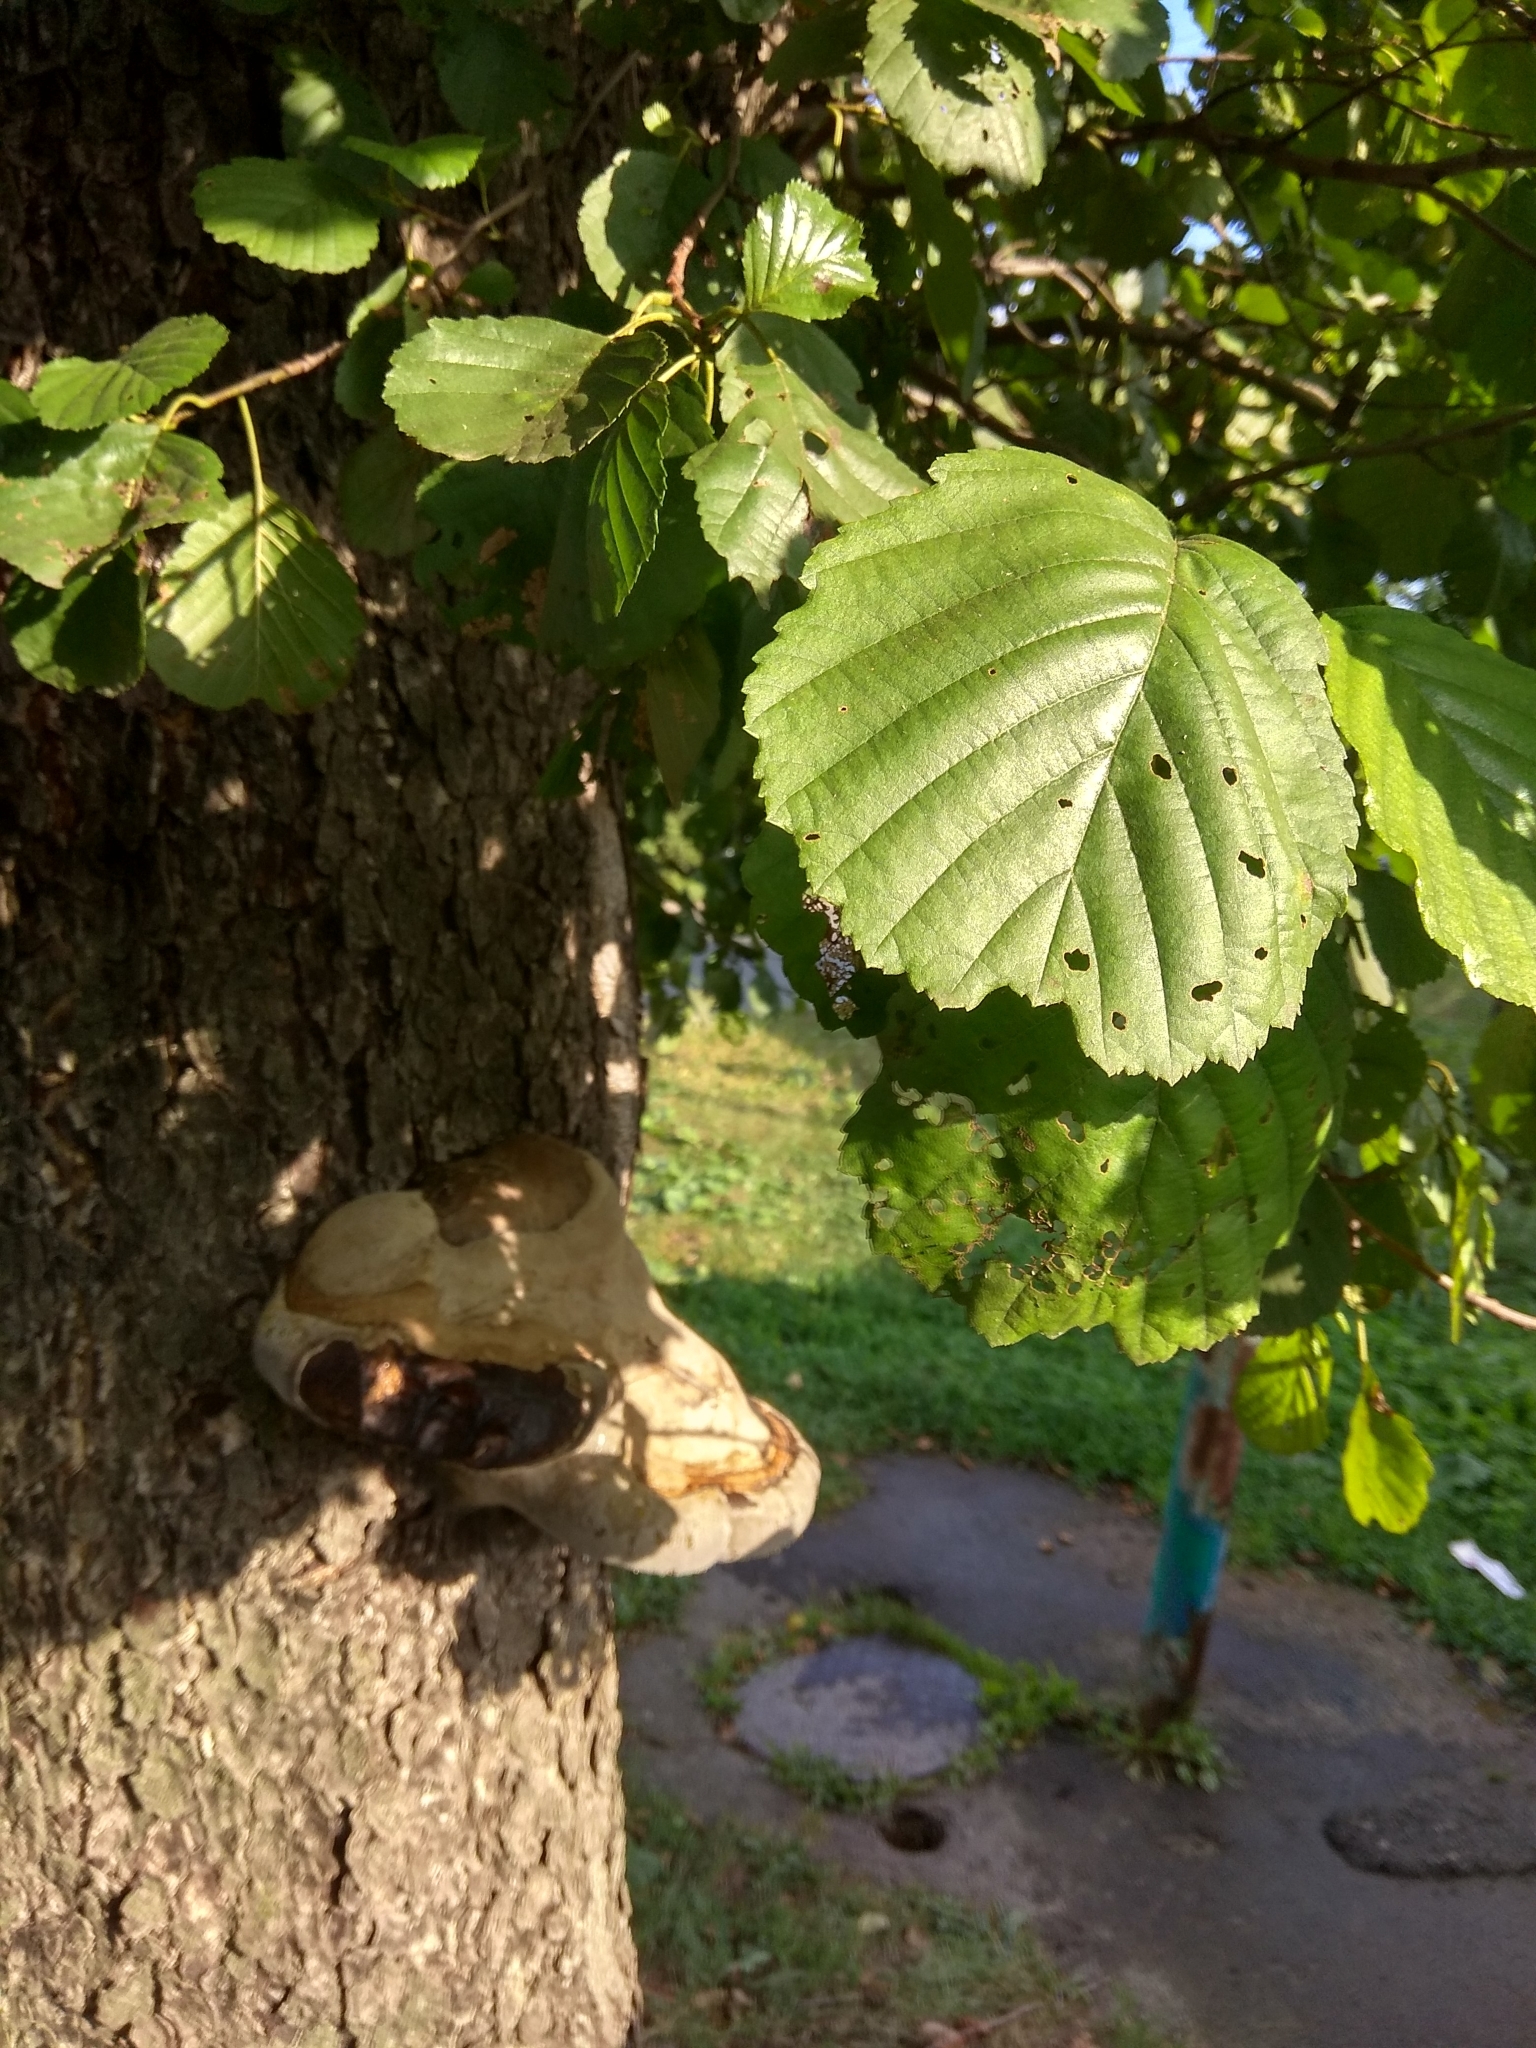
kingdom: Fungi
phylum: Basidiomycota
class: Agaricomycetes
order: Polyporales
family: Polyporaceae
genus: Fomes
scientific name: Fomes fomentarius
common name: Hoof fungus
